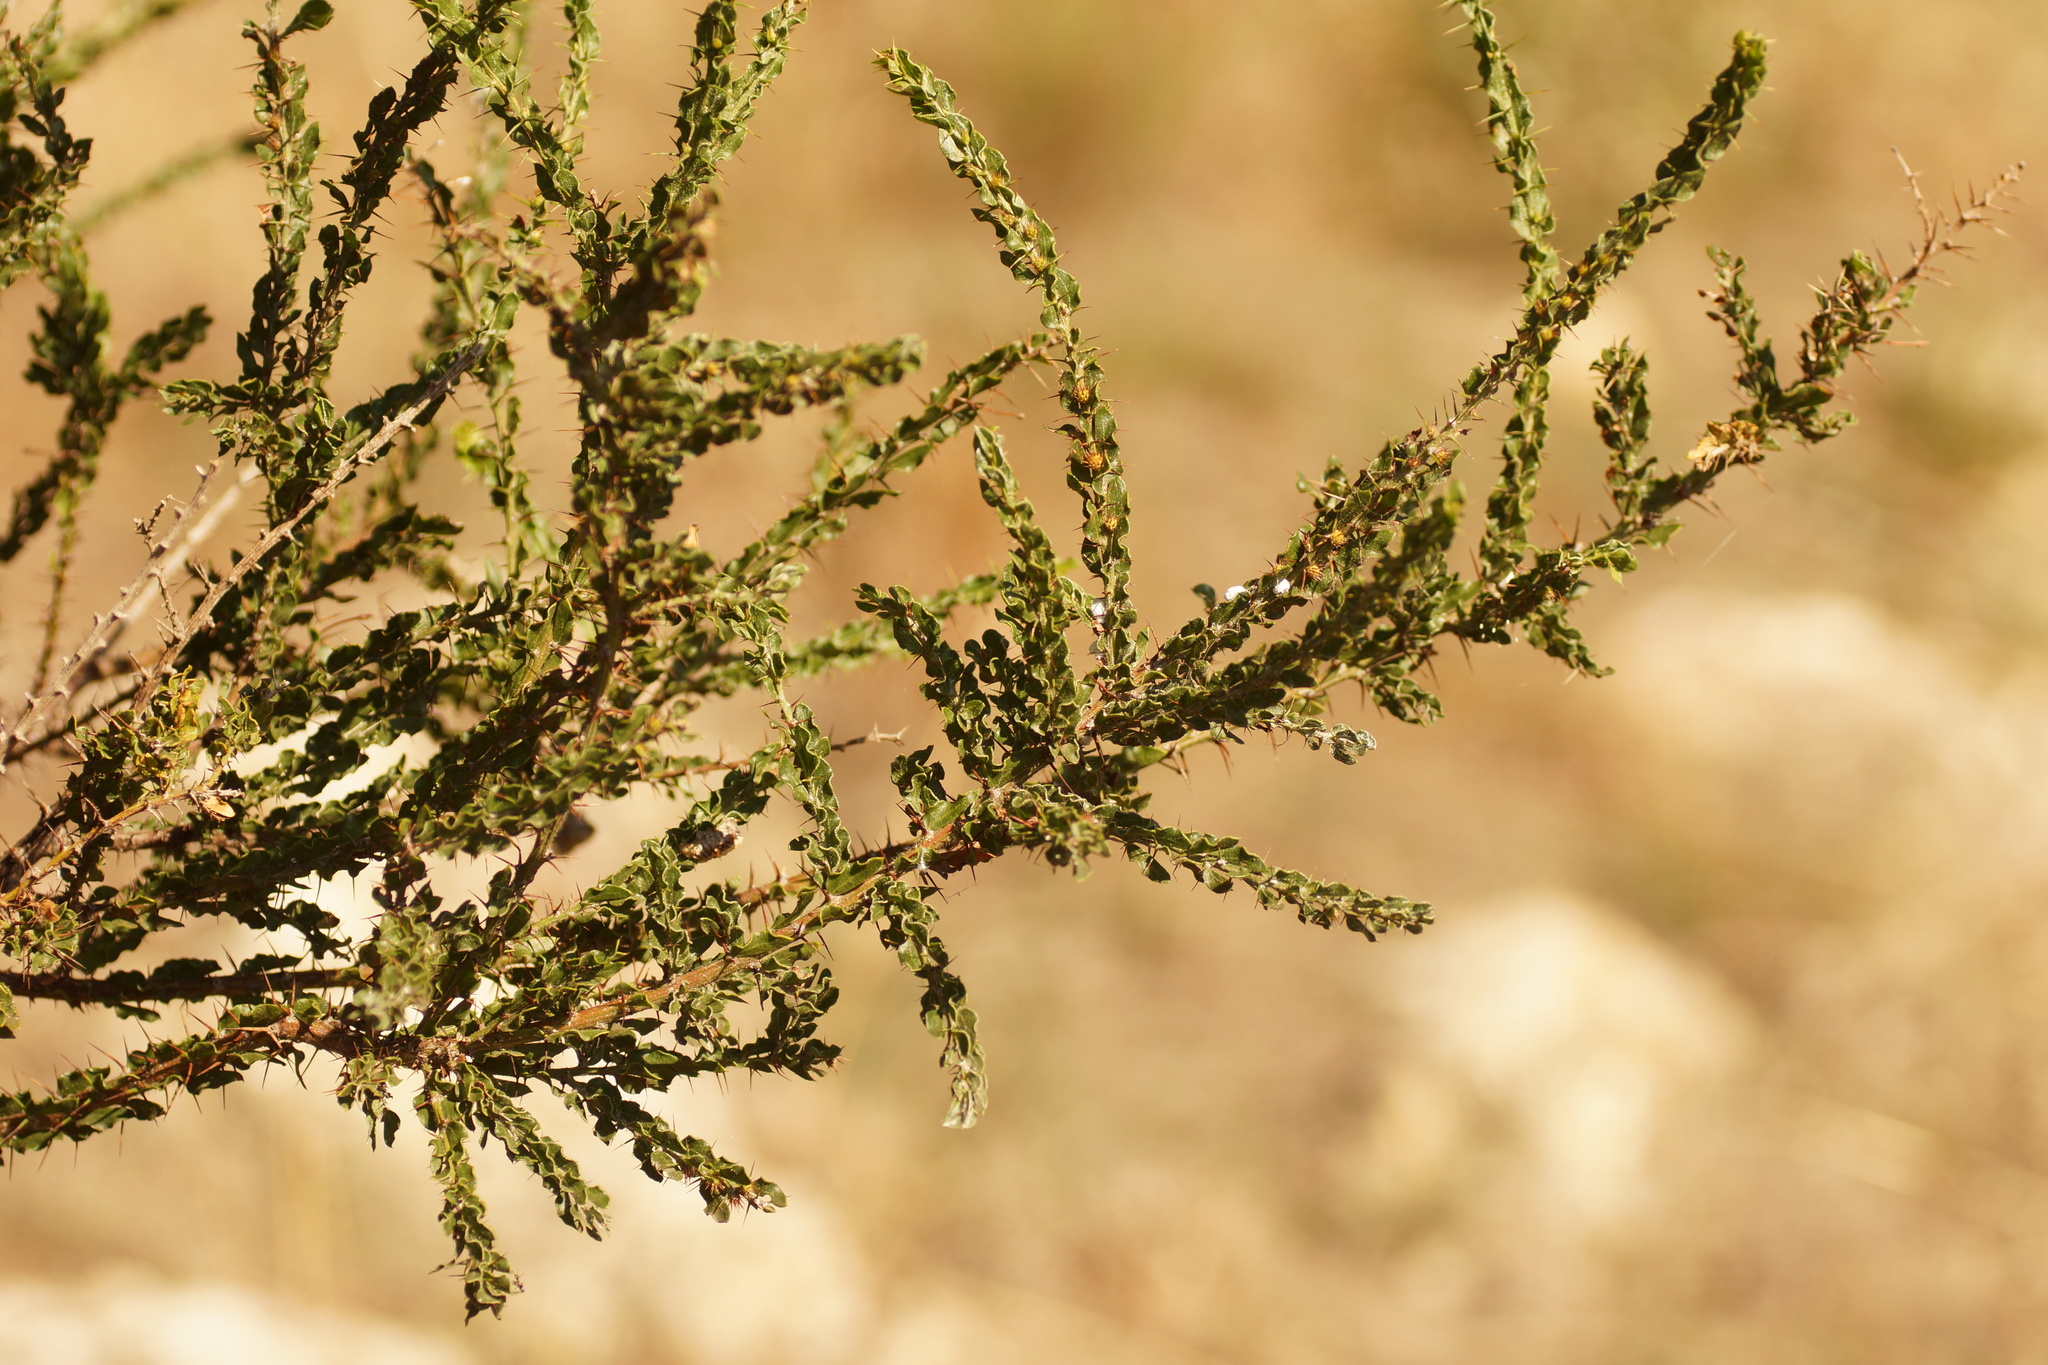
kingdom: Plantae
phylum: Tracheophyta
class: Magnoliopsida
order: Fabales
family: Fabaceae
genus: Acacia
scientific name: Acacia paradoxa
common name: Paradox acacia
